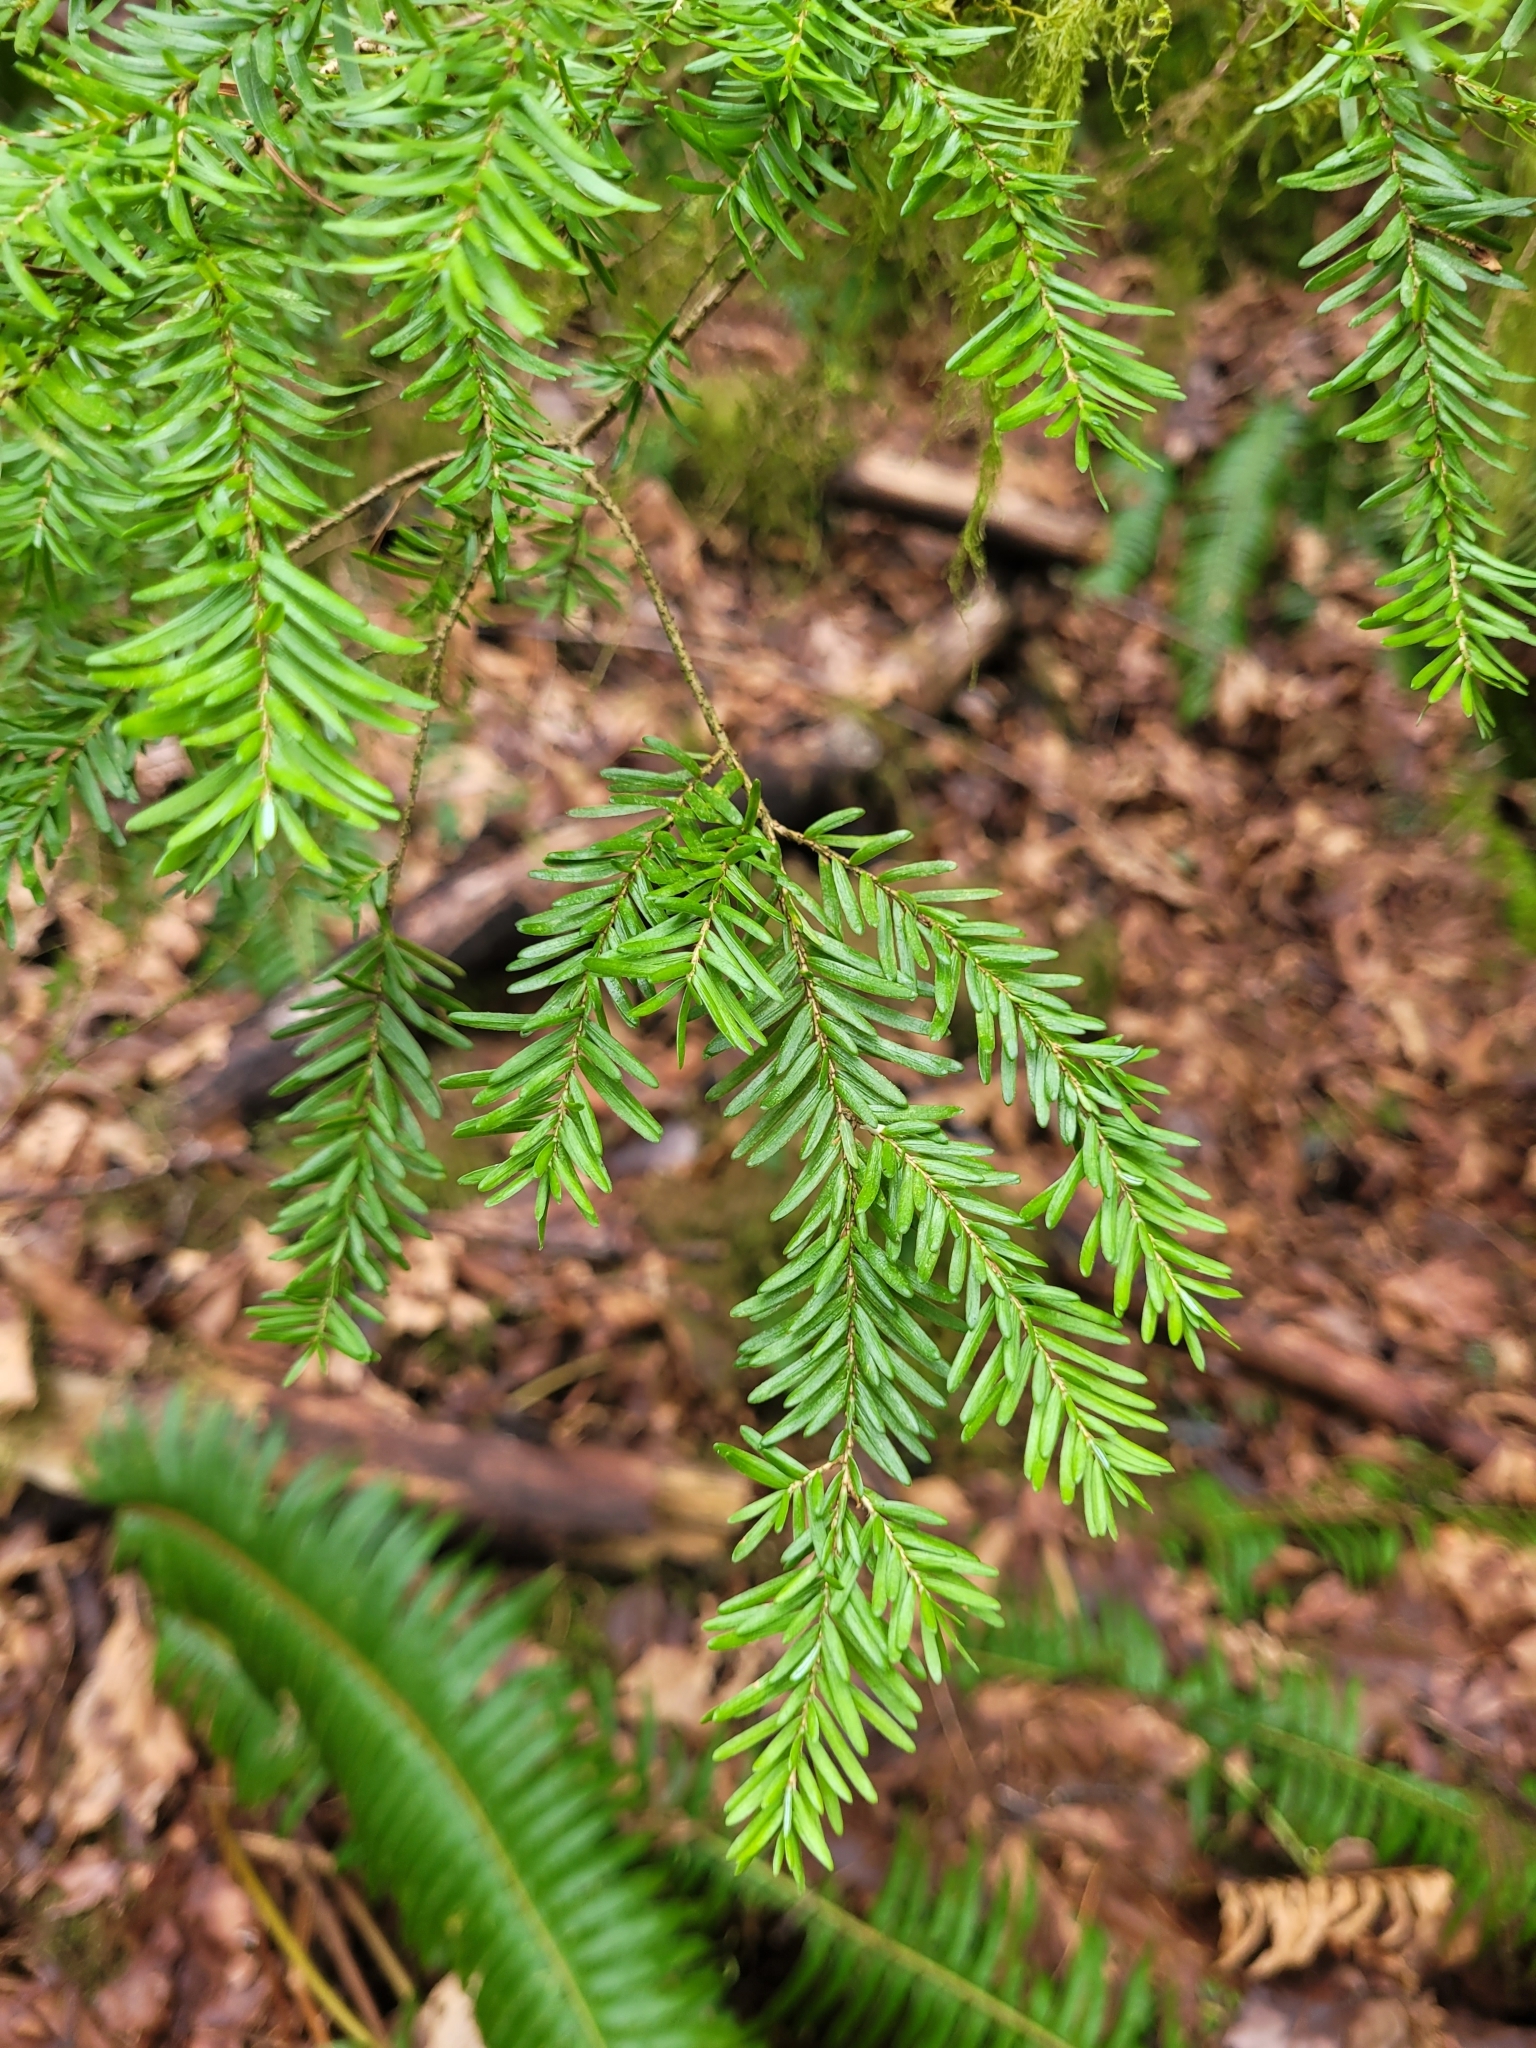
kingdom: Plantae
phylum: Tracheophyta
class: Pinopsida
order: Pinales
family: Pinaceae
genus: Tsuga
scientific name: Tsuga heterophylla
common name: Western hemlock
